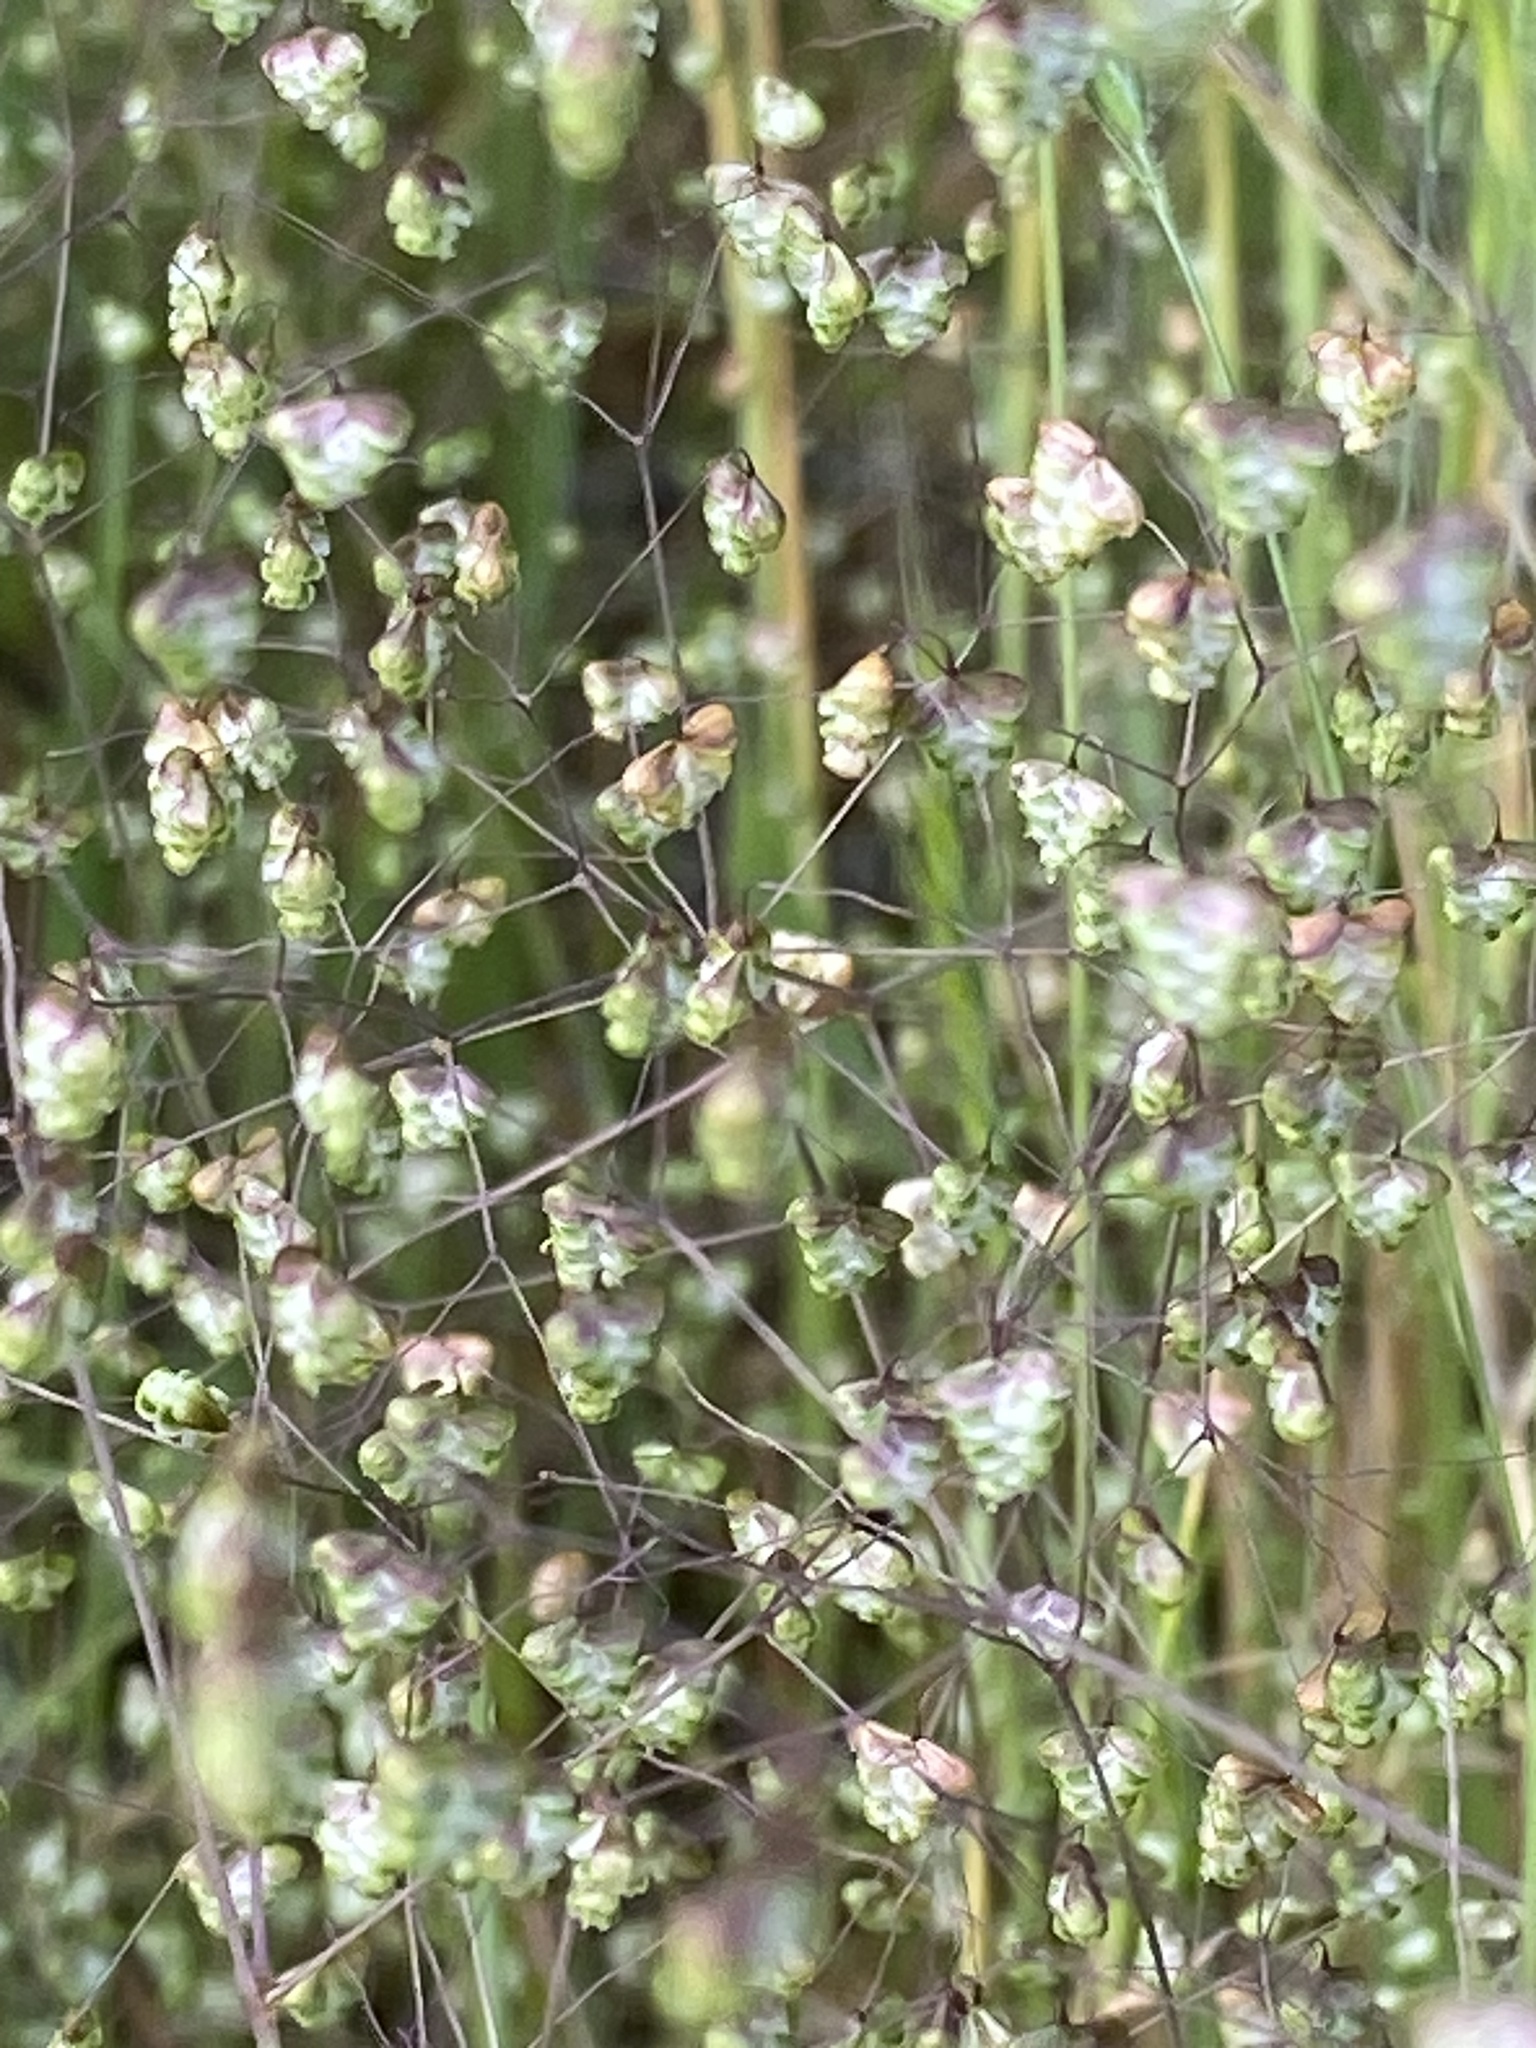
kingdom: Plantae
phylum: Tracheophyta
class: Liliopsida
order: Poales
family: Poaceae
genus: Briza
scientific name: Briza minor
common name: Lesser quaking-grass
